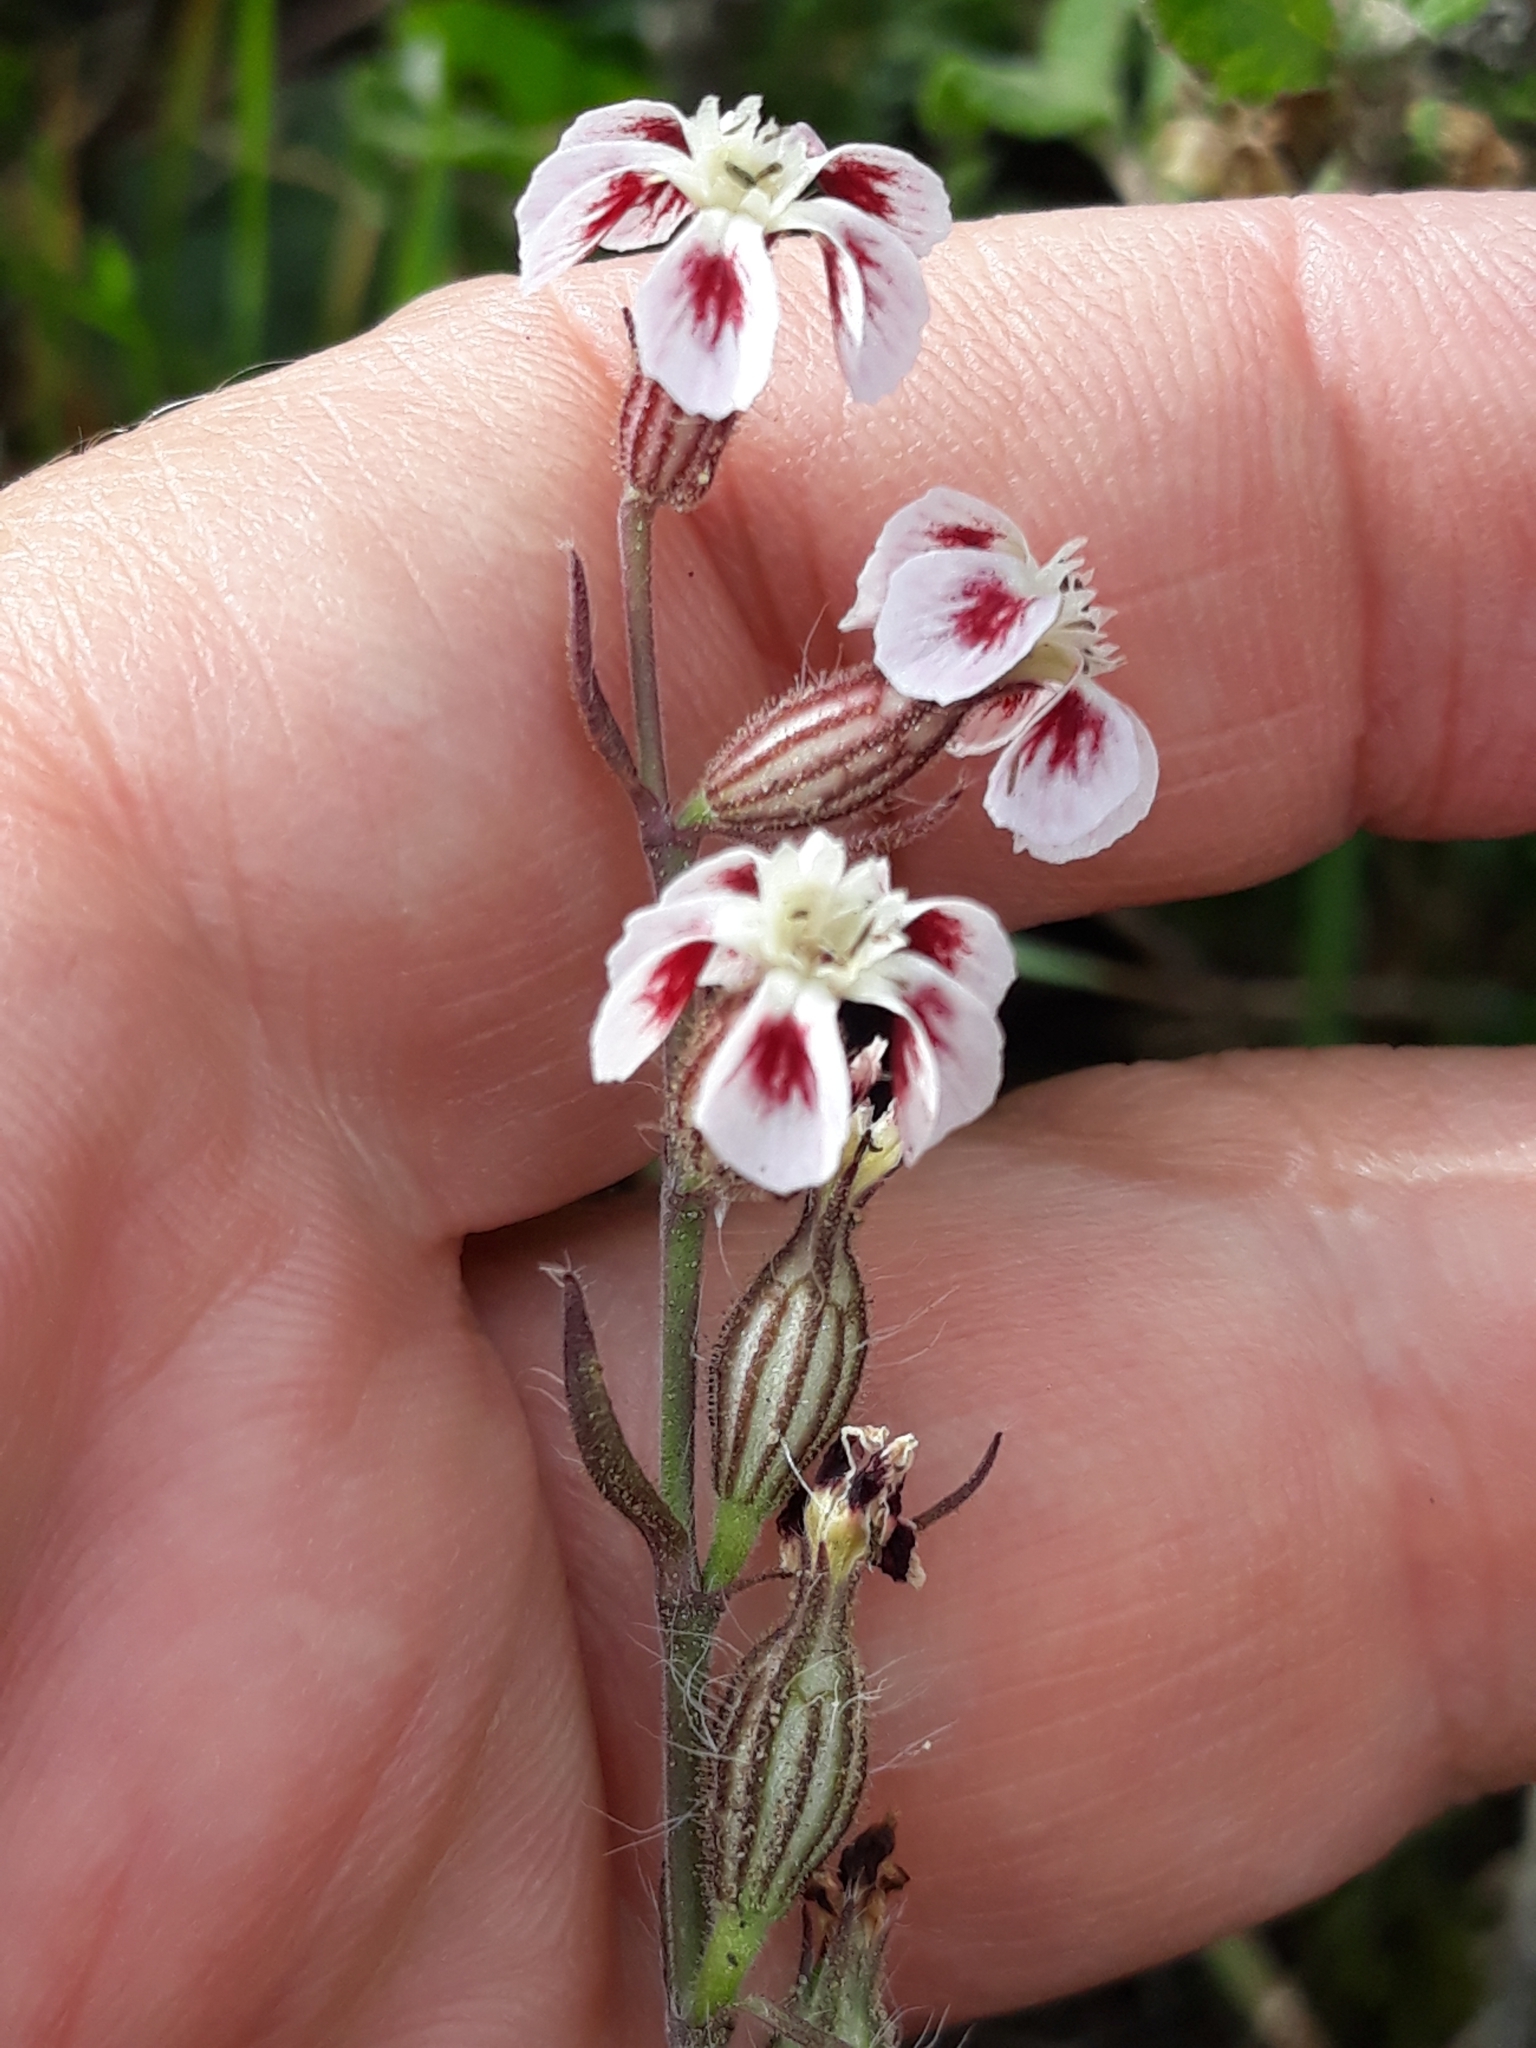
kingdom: Plantae
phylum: Tracheophyta
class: Magnoliopsida
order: Caryophyllales
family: Caryophyllaceae
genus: Silene
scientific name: Silene gallica
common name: Small-flowered catchfly
